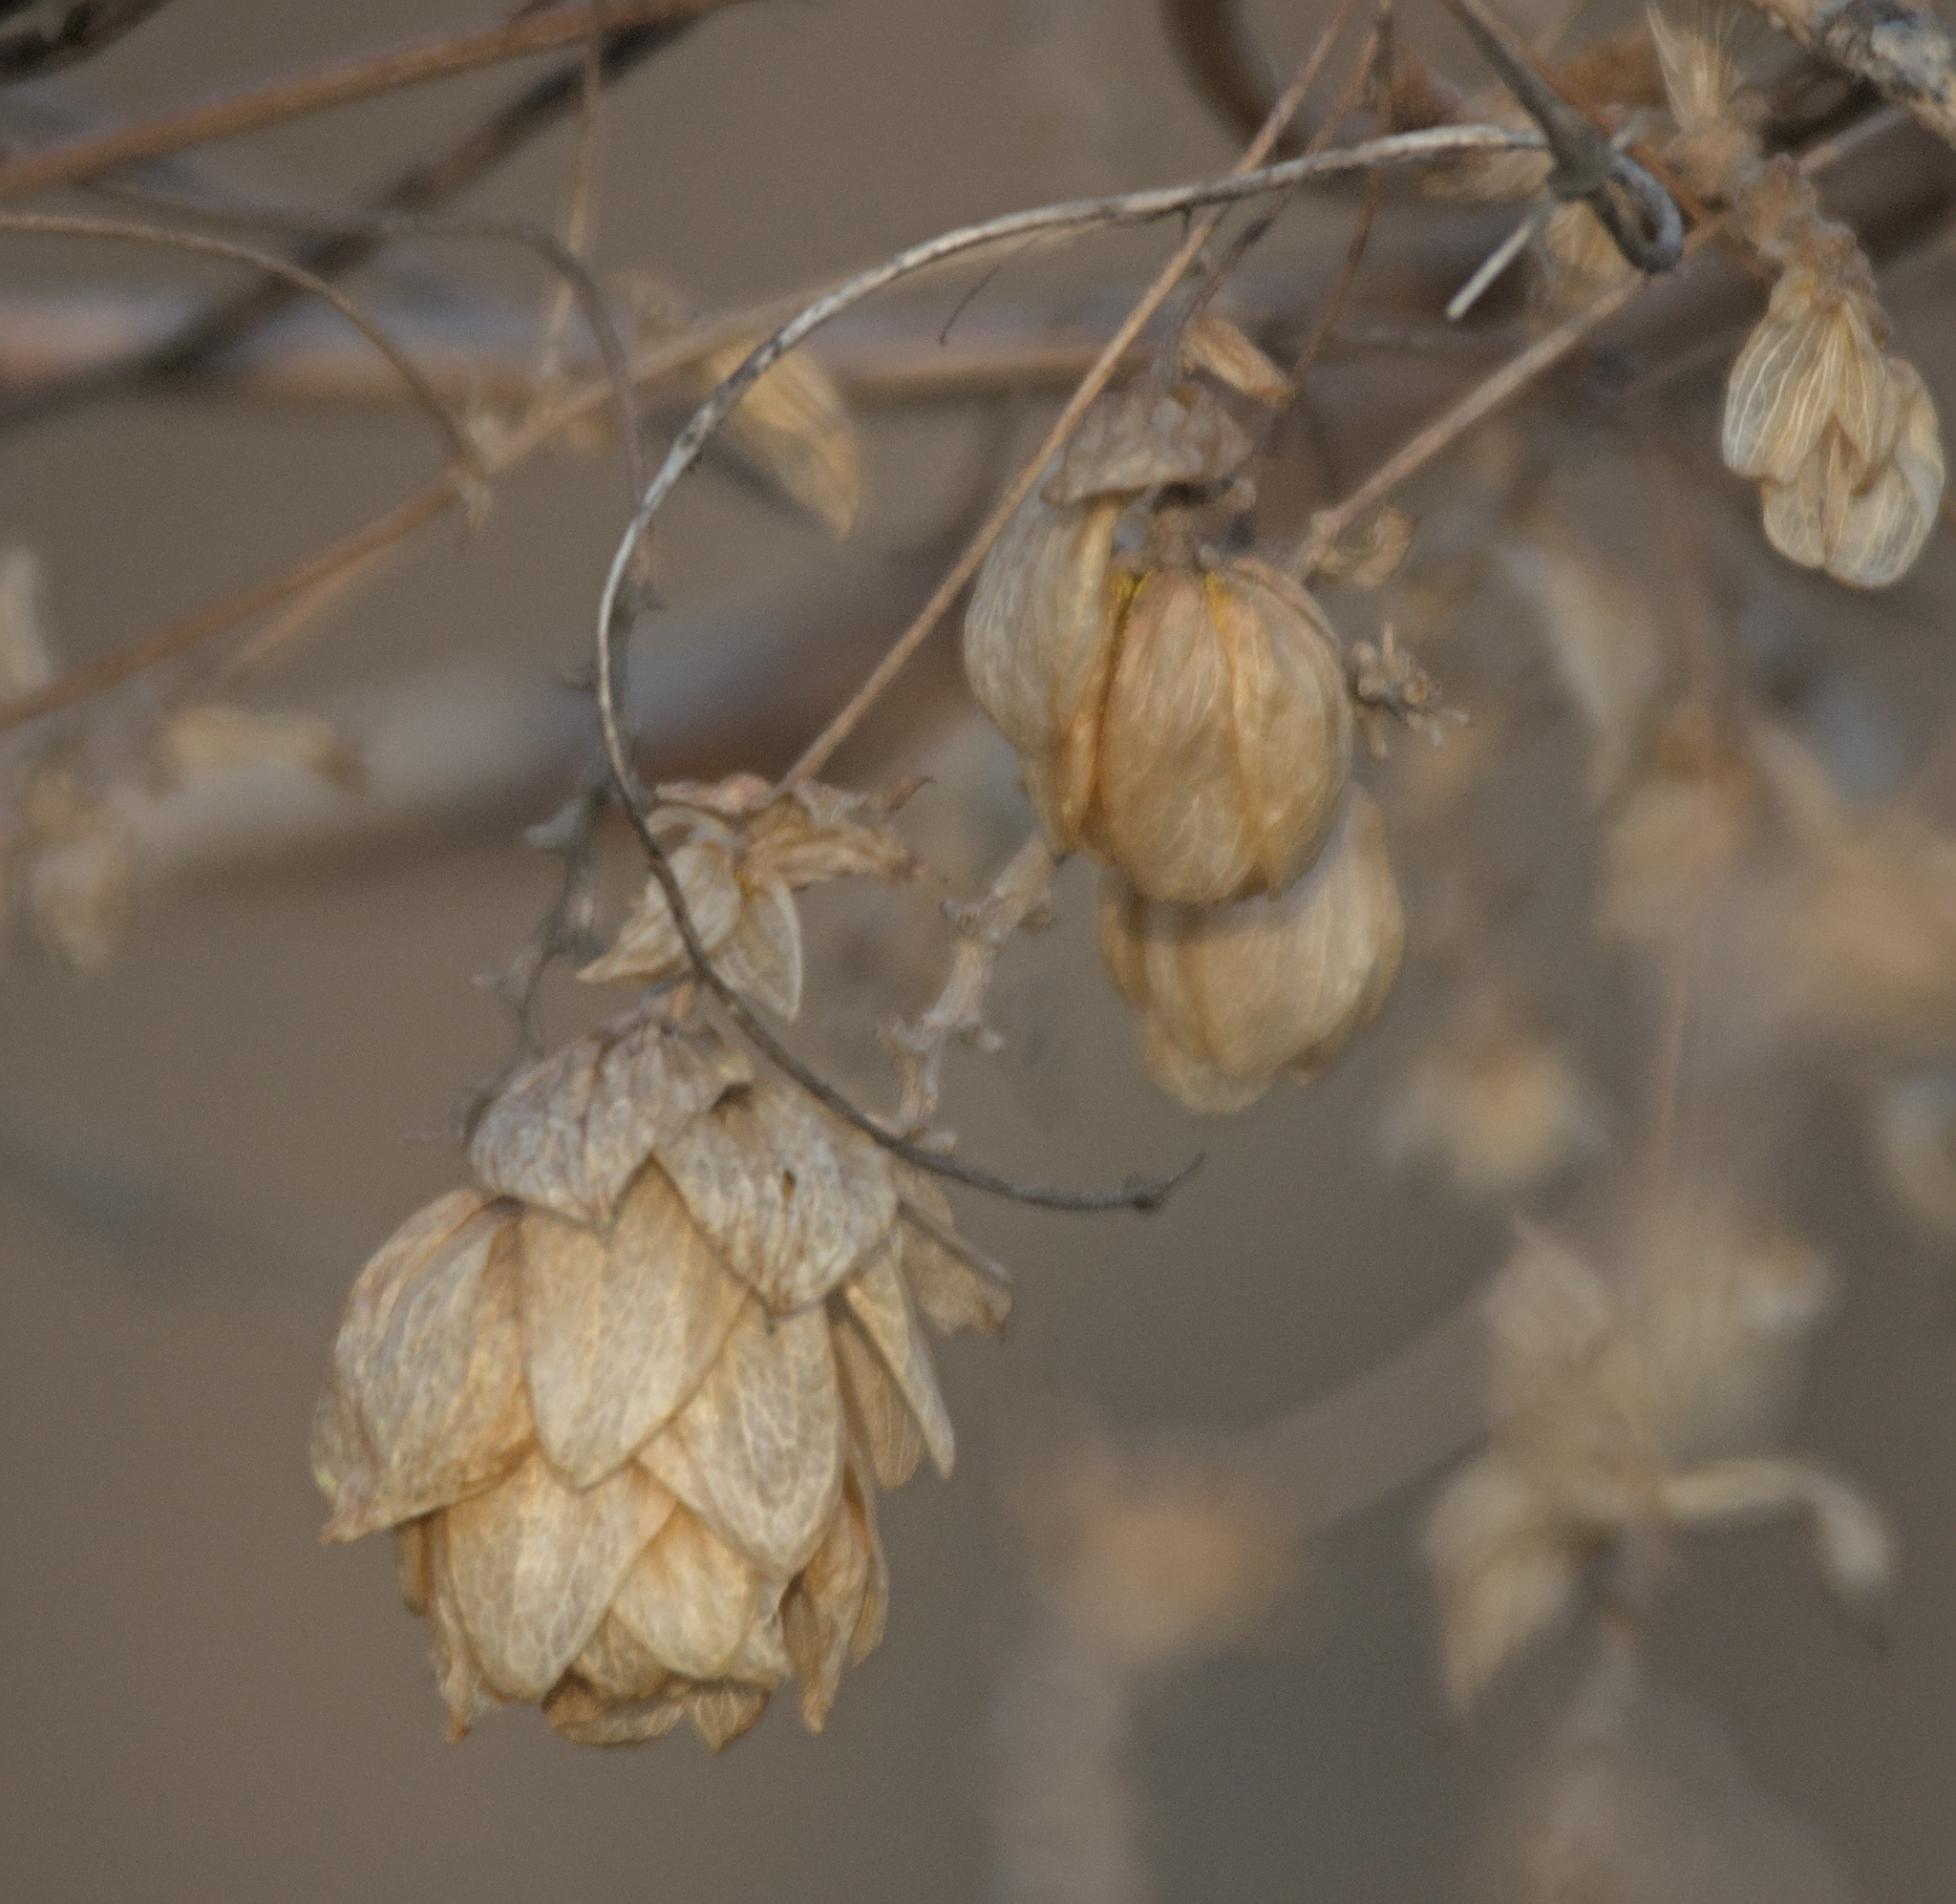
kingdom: Plantae
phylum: Tracheophyta
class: Magnoliopsida
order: Rosales
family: Cannabaceae
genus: Humulus
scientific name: Humulus lupulus
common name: Hop
